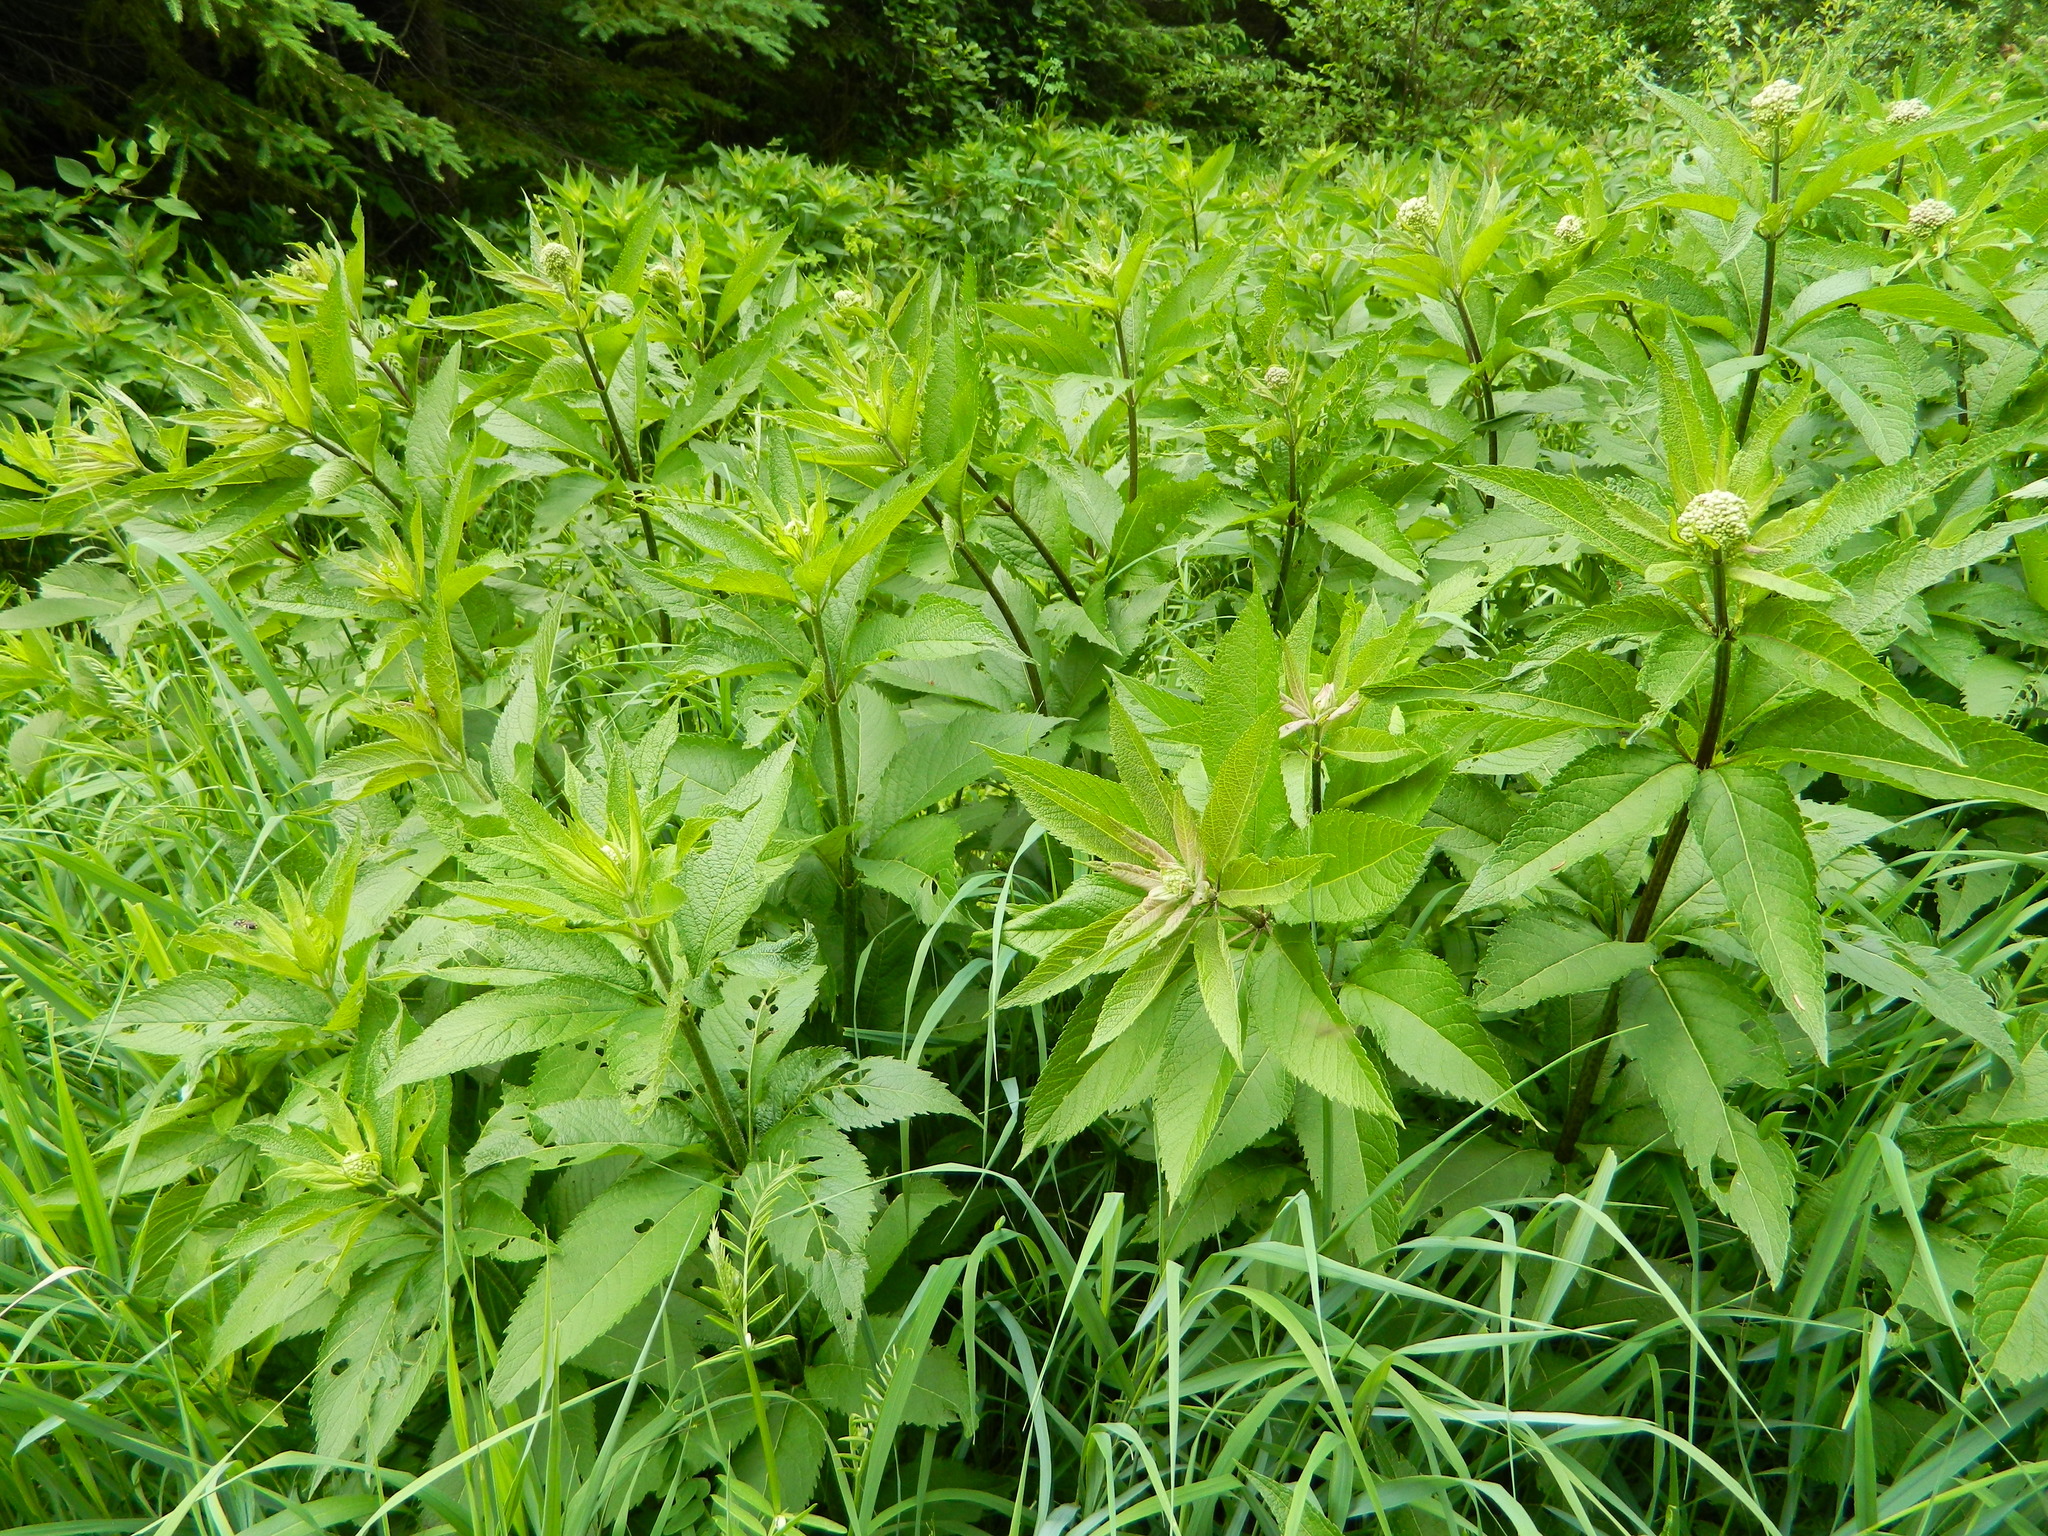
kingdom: Plantae
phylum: Tracheophyta
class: Magnoliopsida
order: Asterales
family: Asteraceae
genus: Eutrochium
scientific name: Eutrochium maculatum
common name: Spotted joe pye weed
